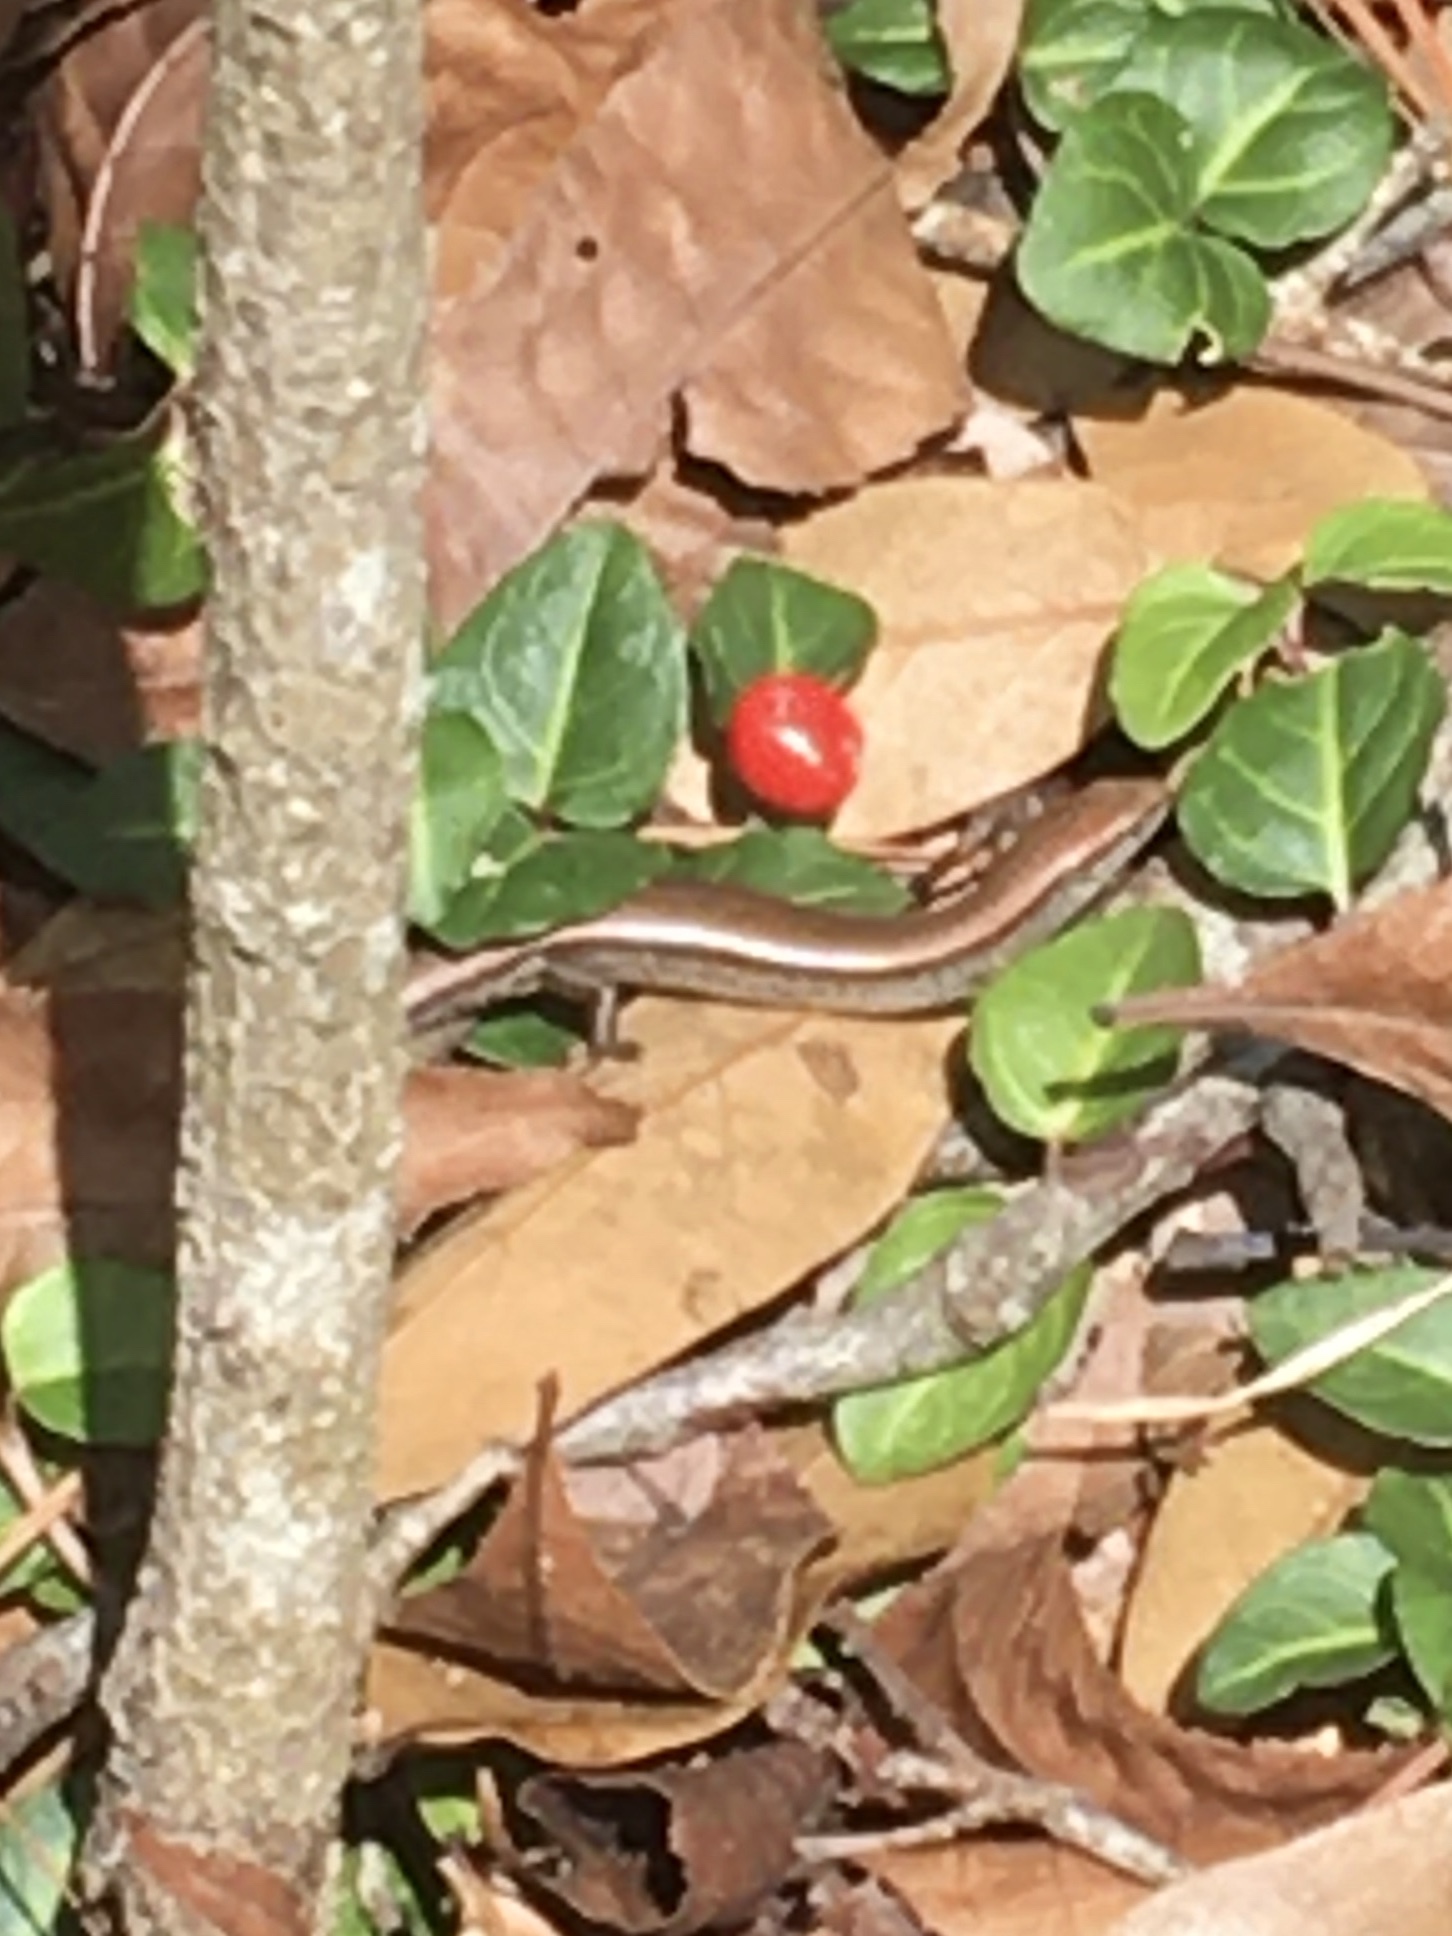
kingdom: Animalia
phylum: Chordata
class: Squamata
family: Scincidae
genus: Scincella
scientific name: Scincella lateralis
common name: Ground skink
